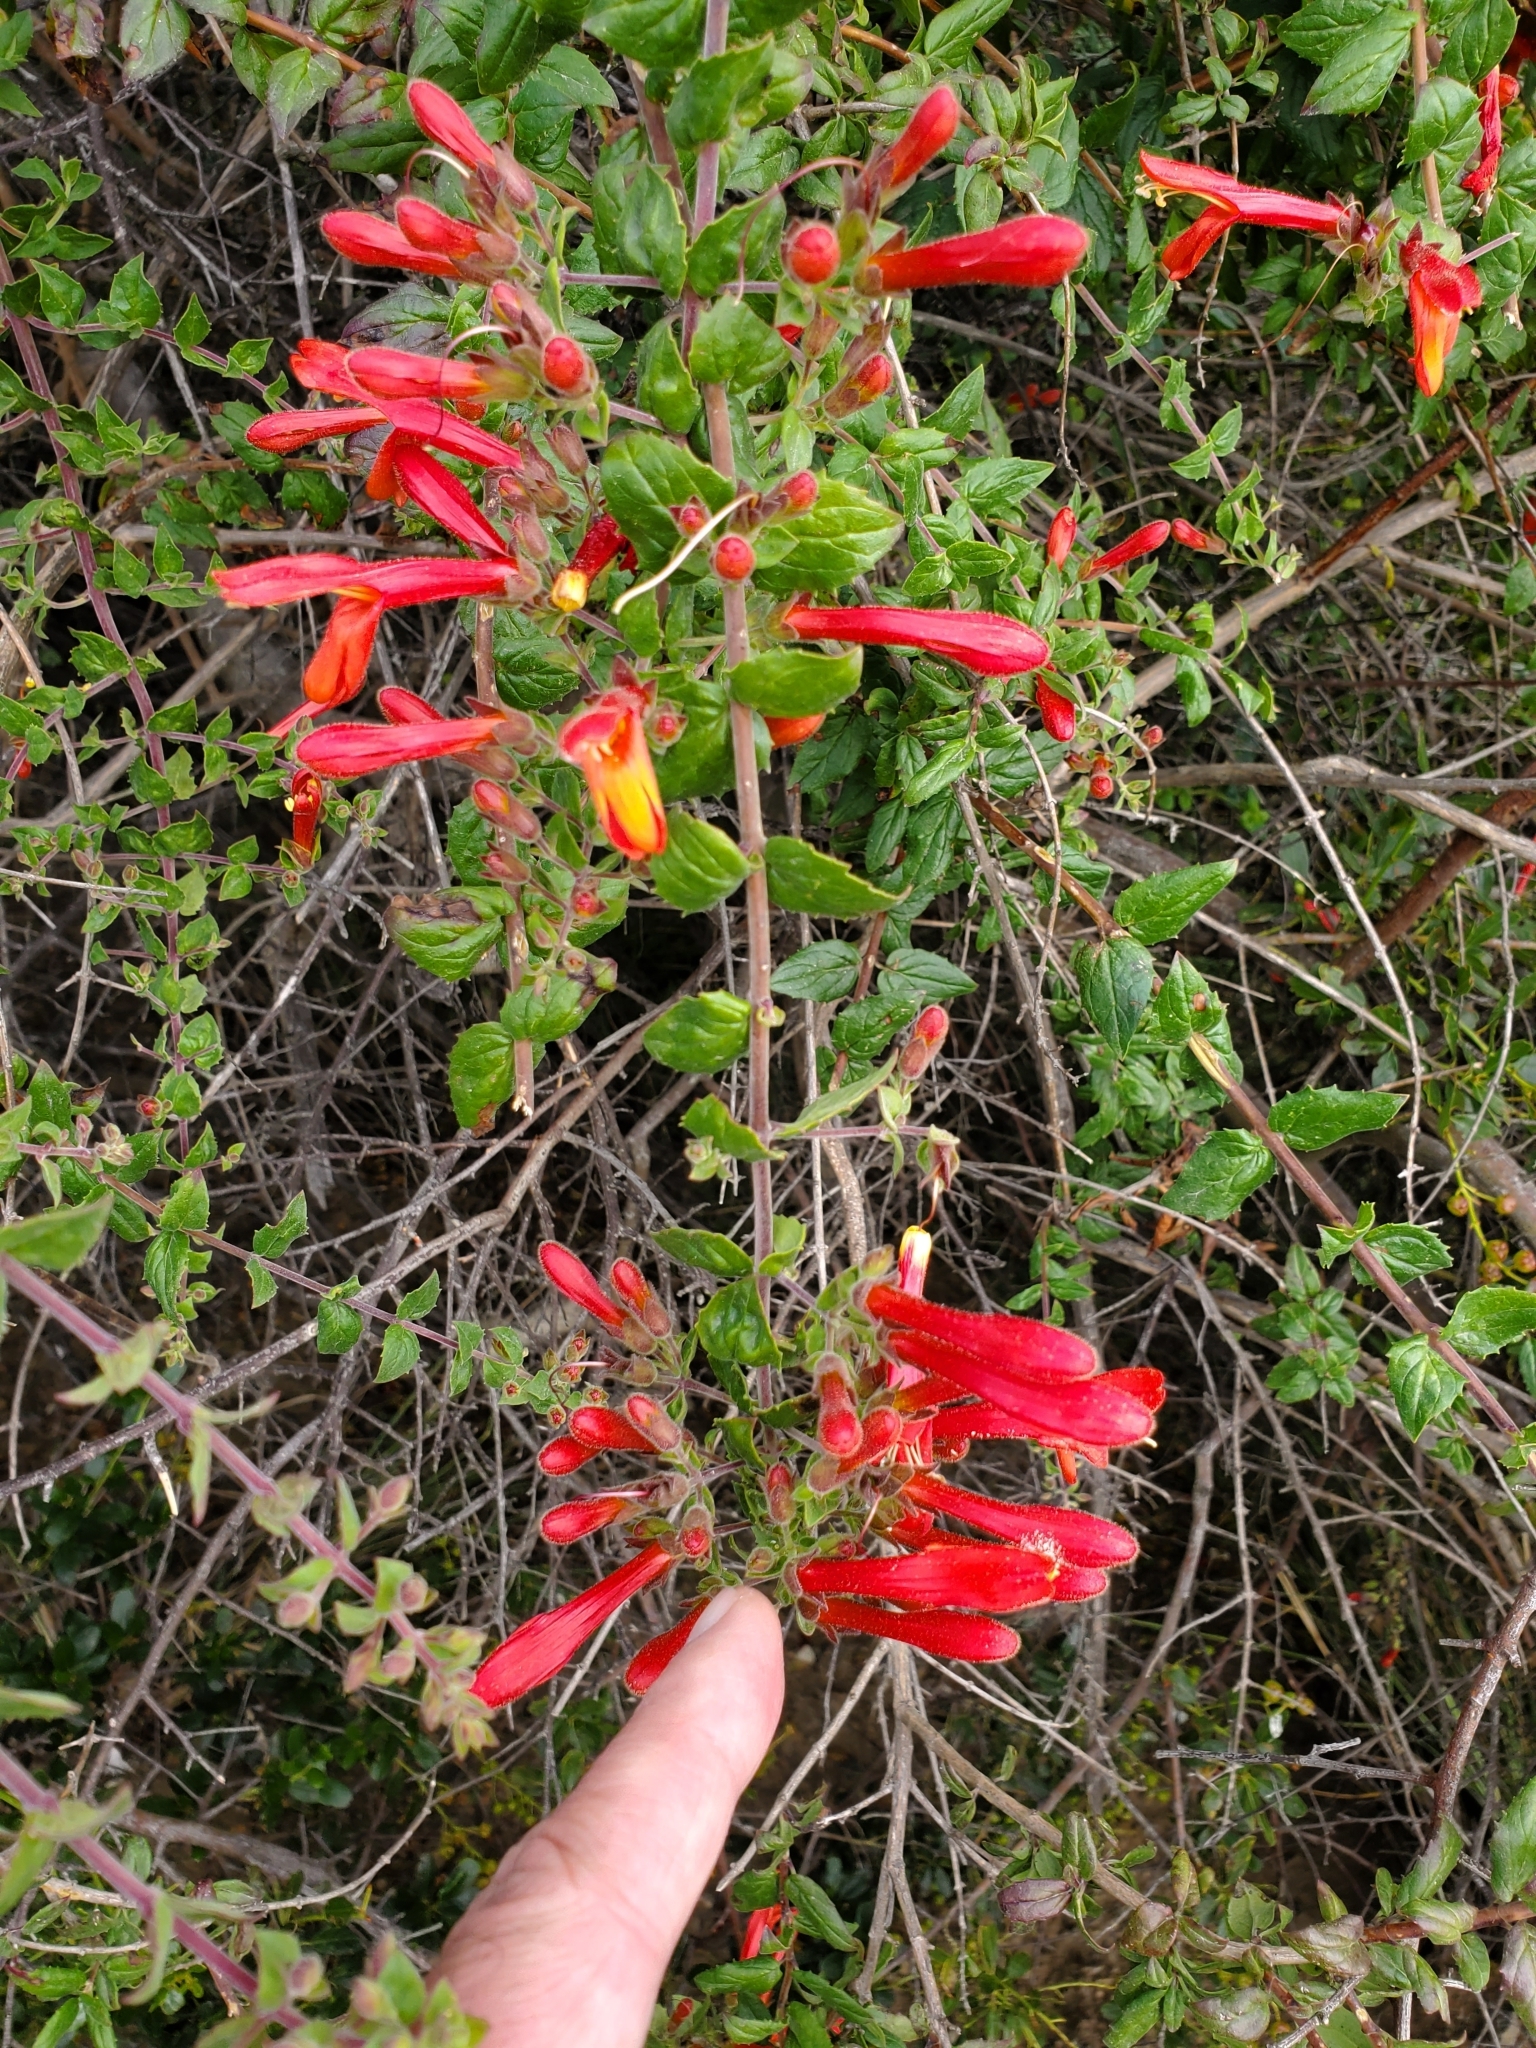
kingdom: Plantae
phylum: Tracheophyta
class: Magnoliopsida
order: Lamiales
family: Plantaginaceae
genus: Keckiella
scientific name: Keckiella cordifolia
